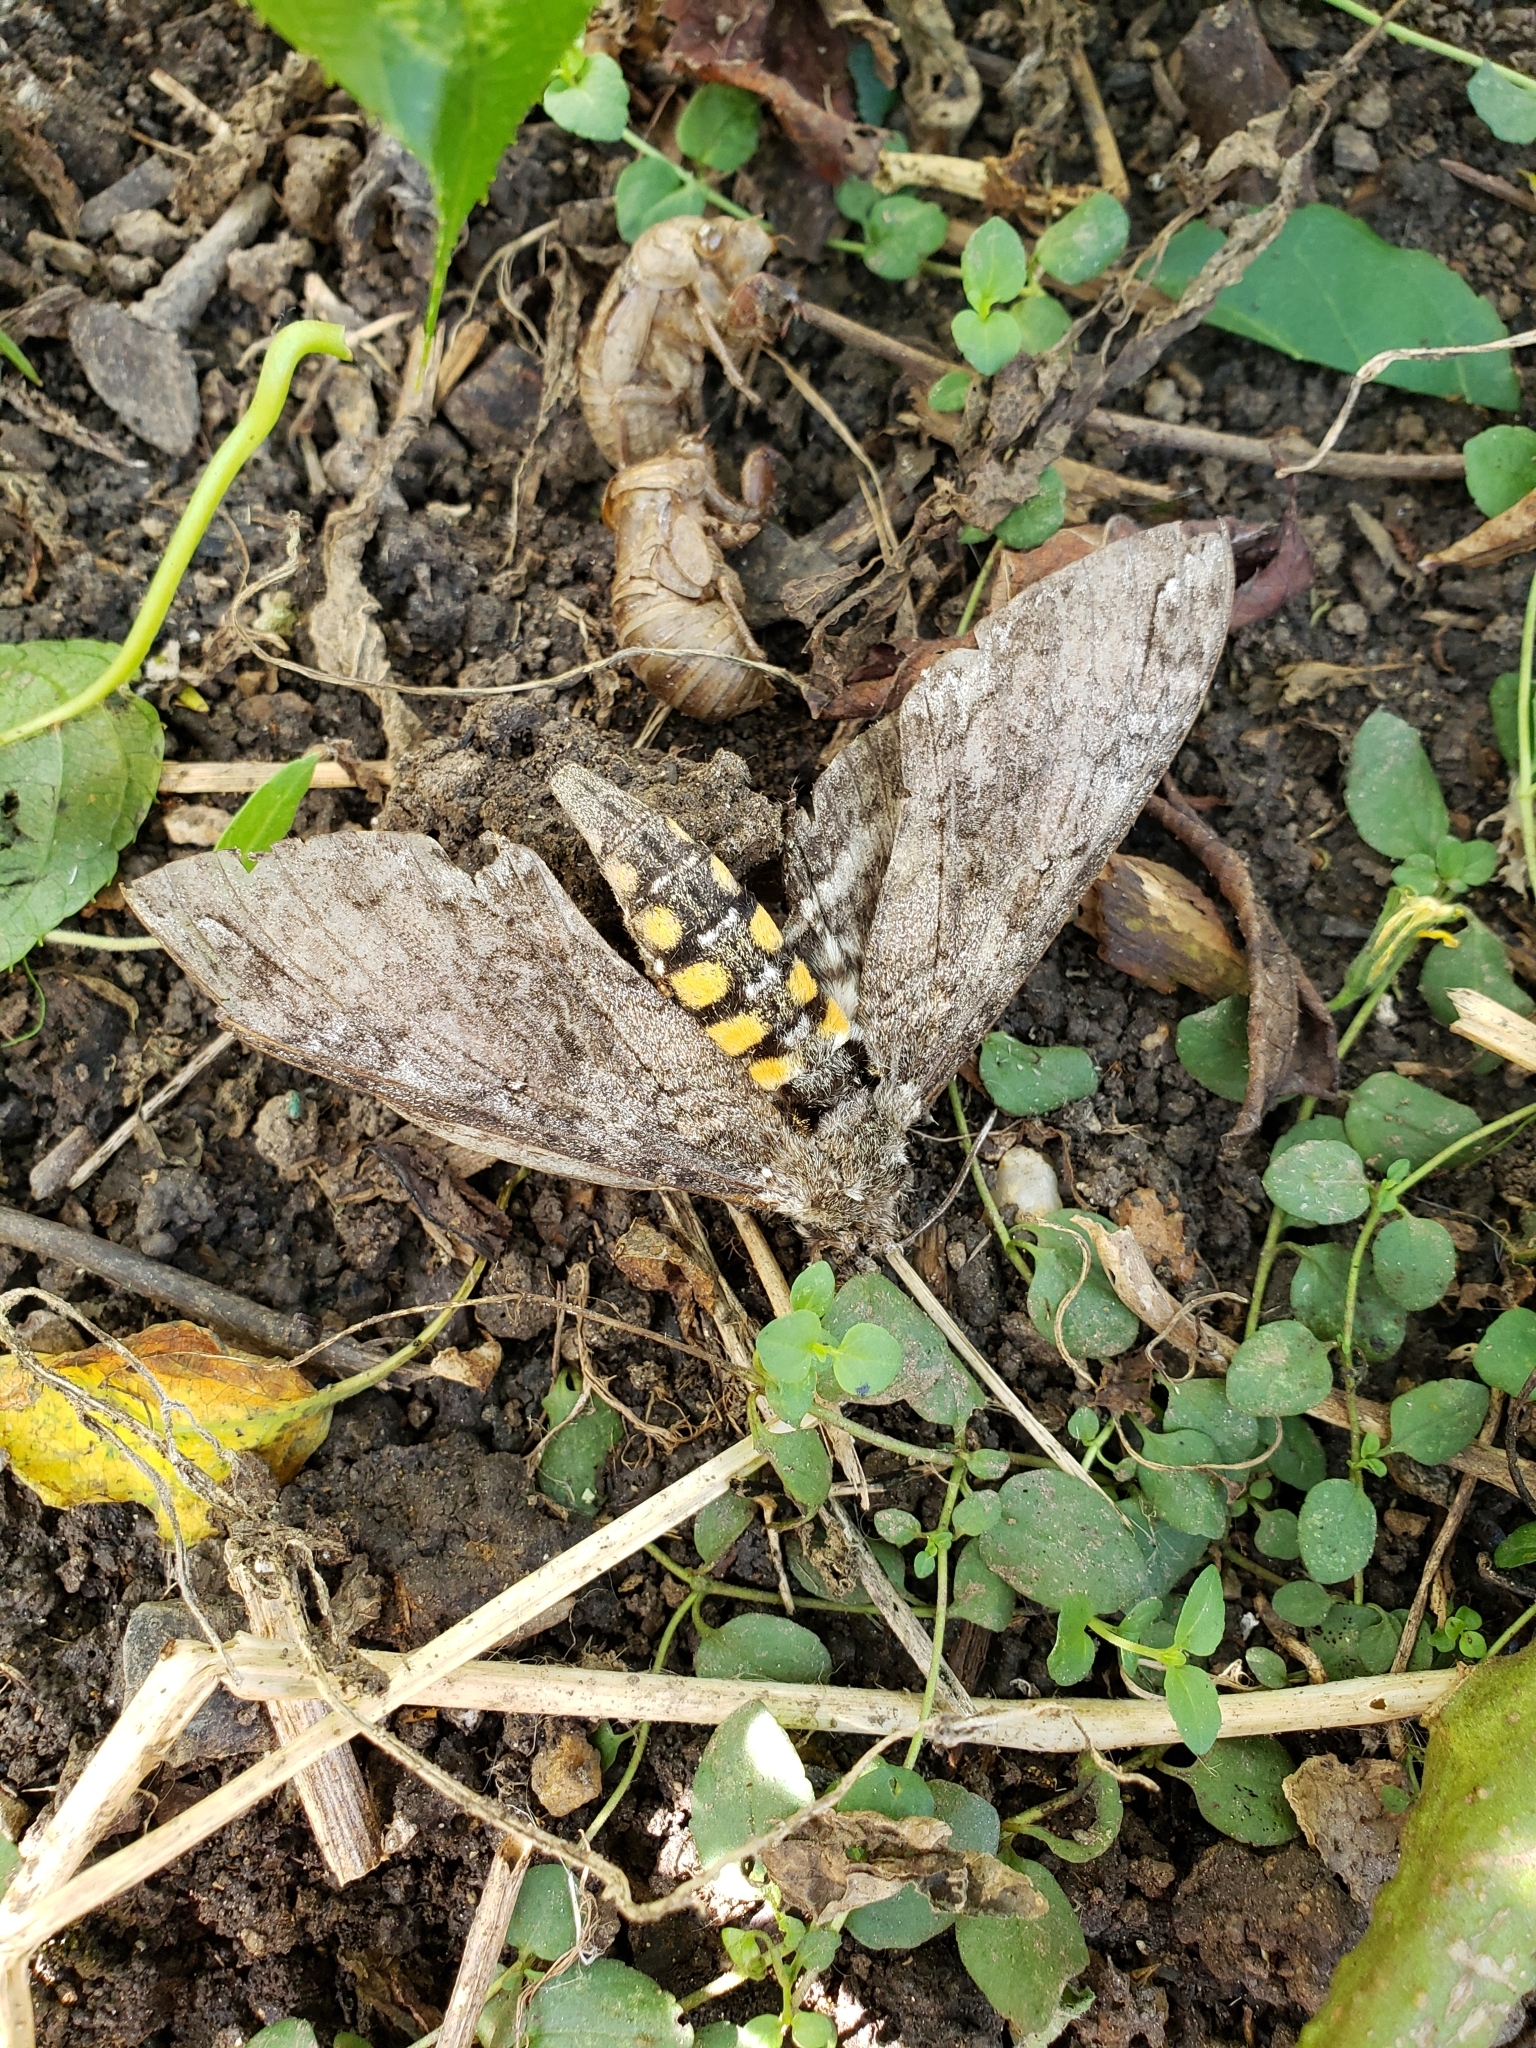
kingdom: Animalia
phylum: Arthropoda
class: Insecta
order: Lepidoptera
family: Sphingidae
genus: Manduca
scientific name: Manduca sexta
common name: Carolina sphinx
